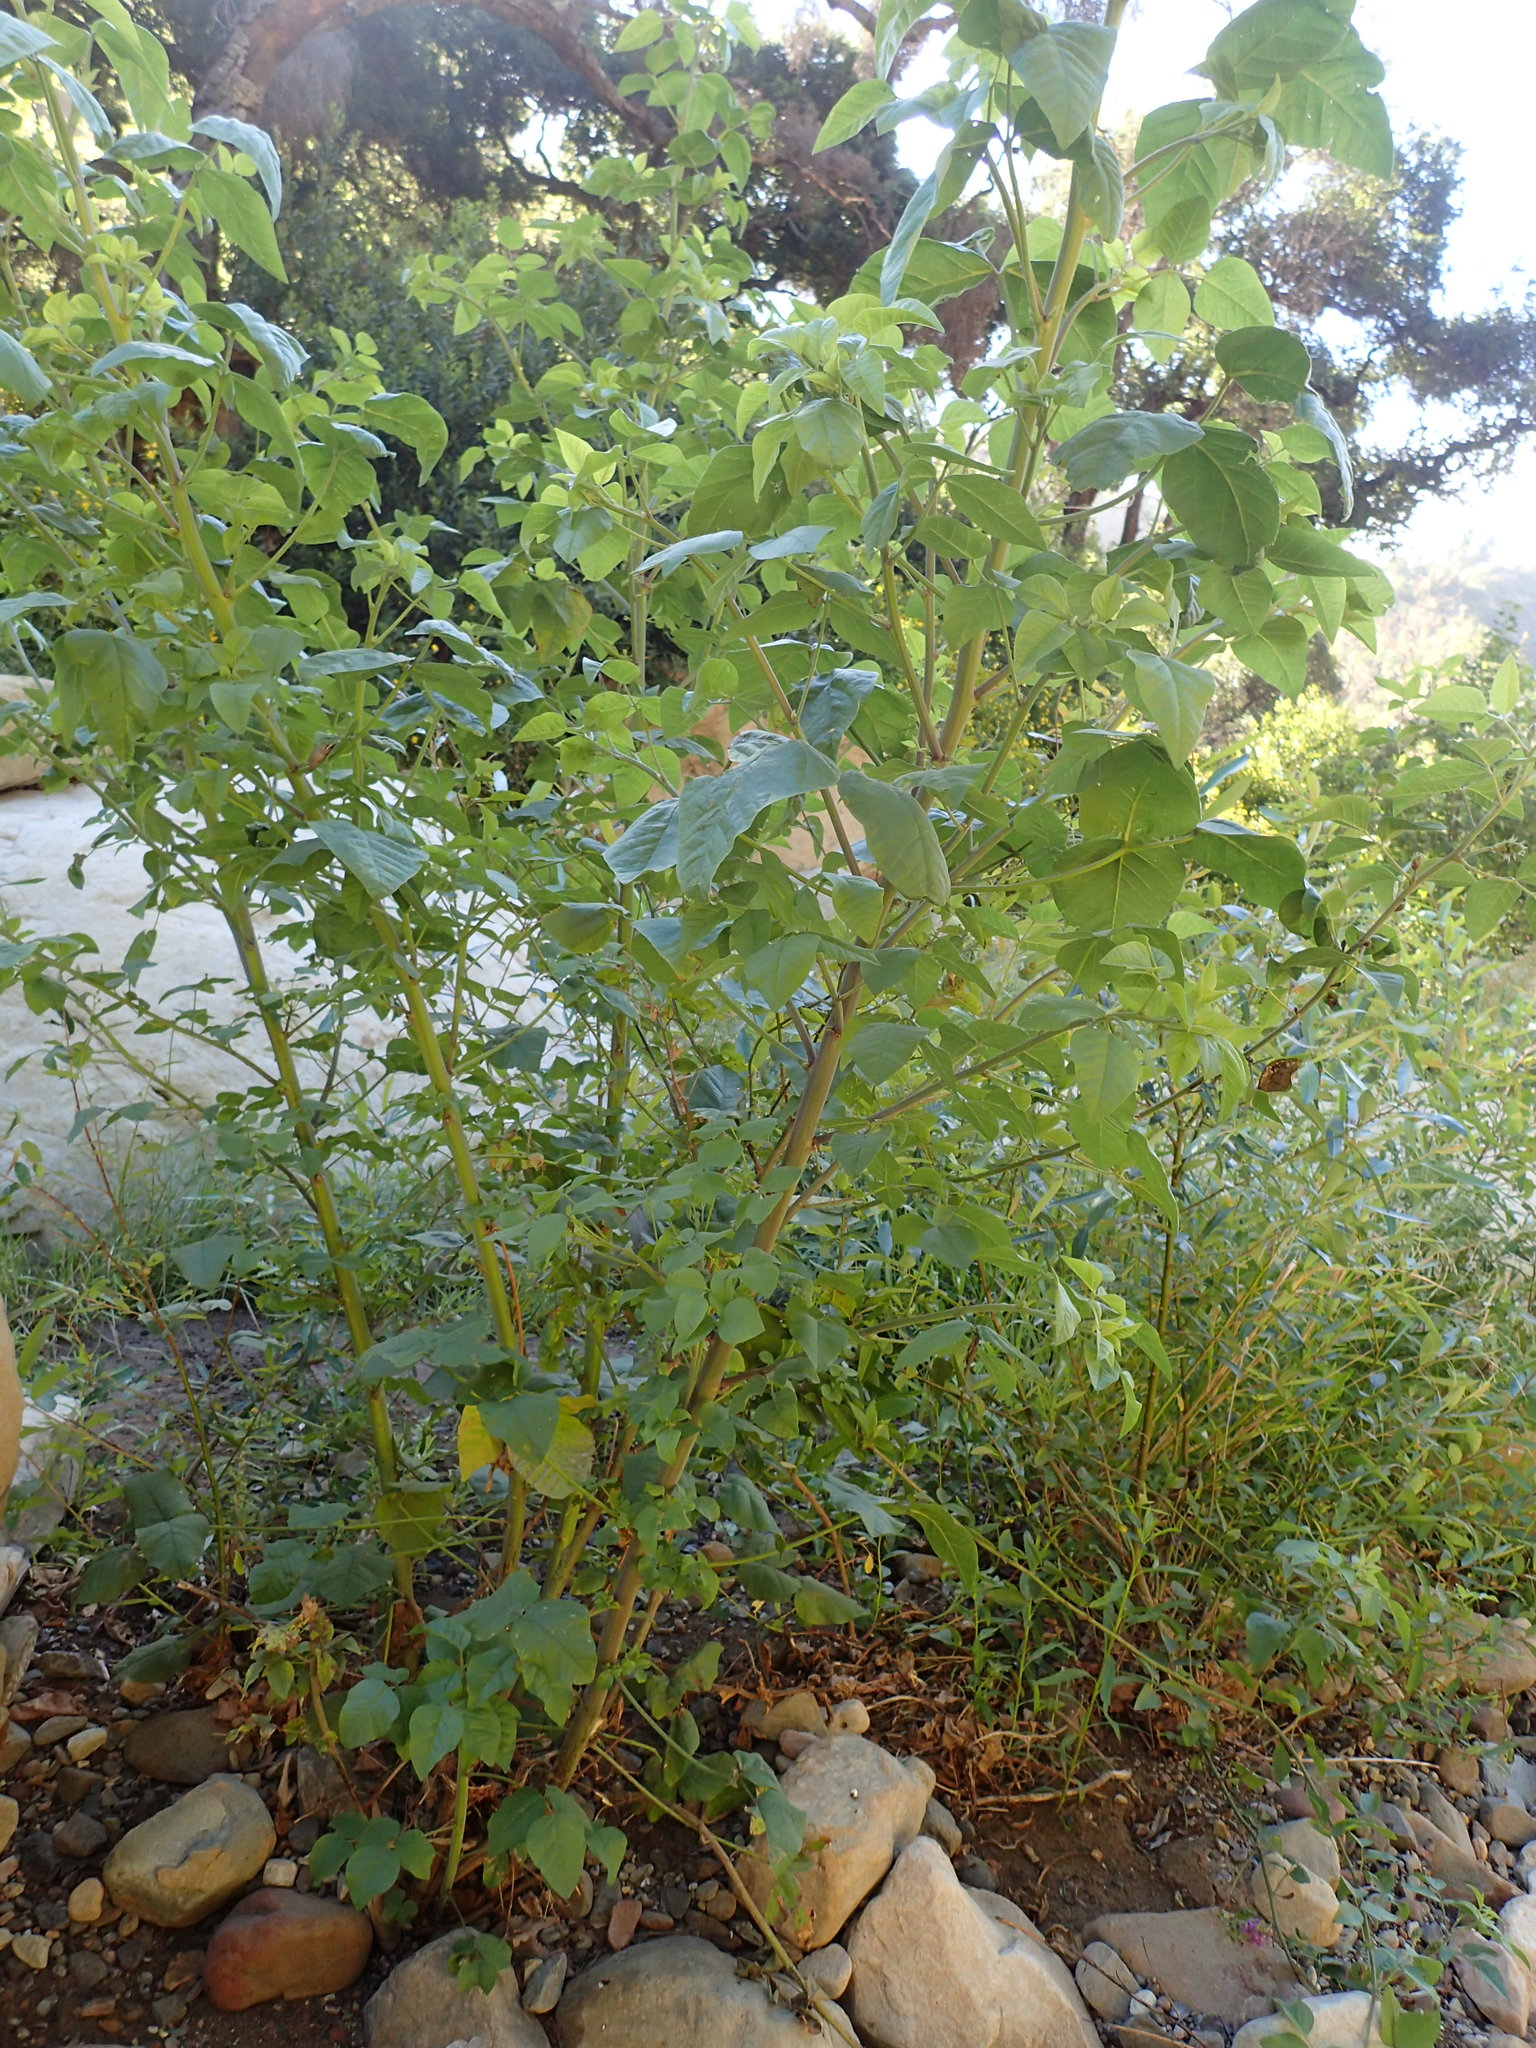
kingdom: Plantae
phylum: Tracheophyta
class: Magnoliopsida
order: Fabales
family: Fabaceae
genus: Hoita
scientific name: Hoita macrostachya
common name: Leatherroot
